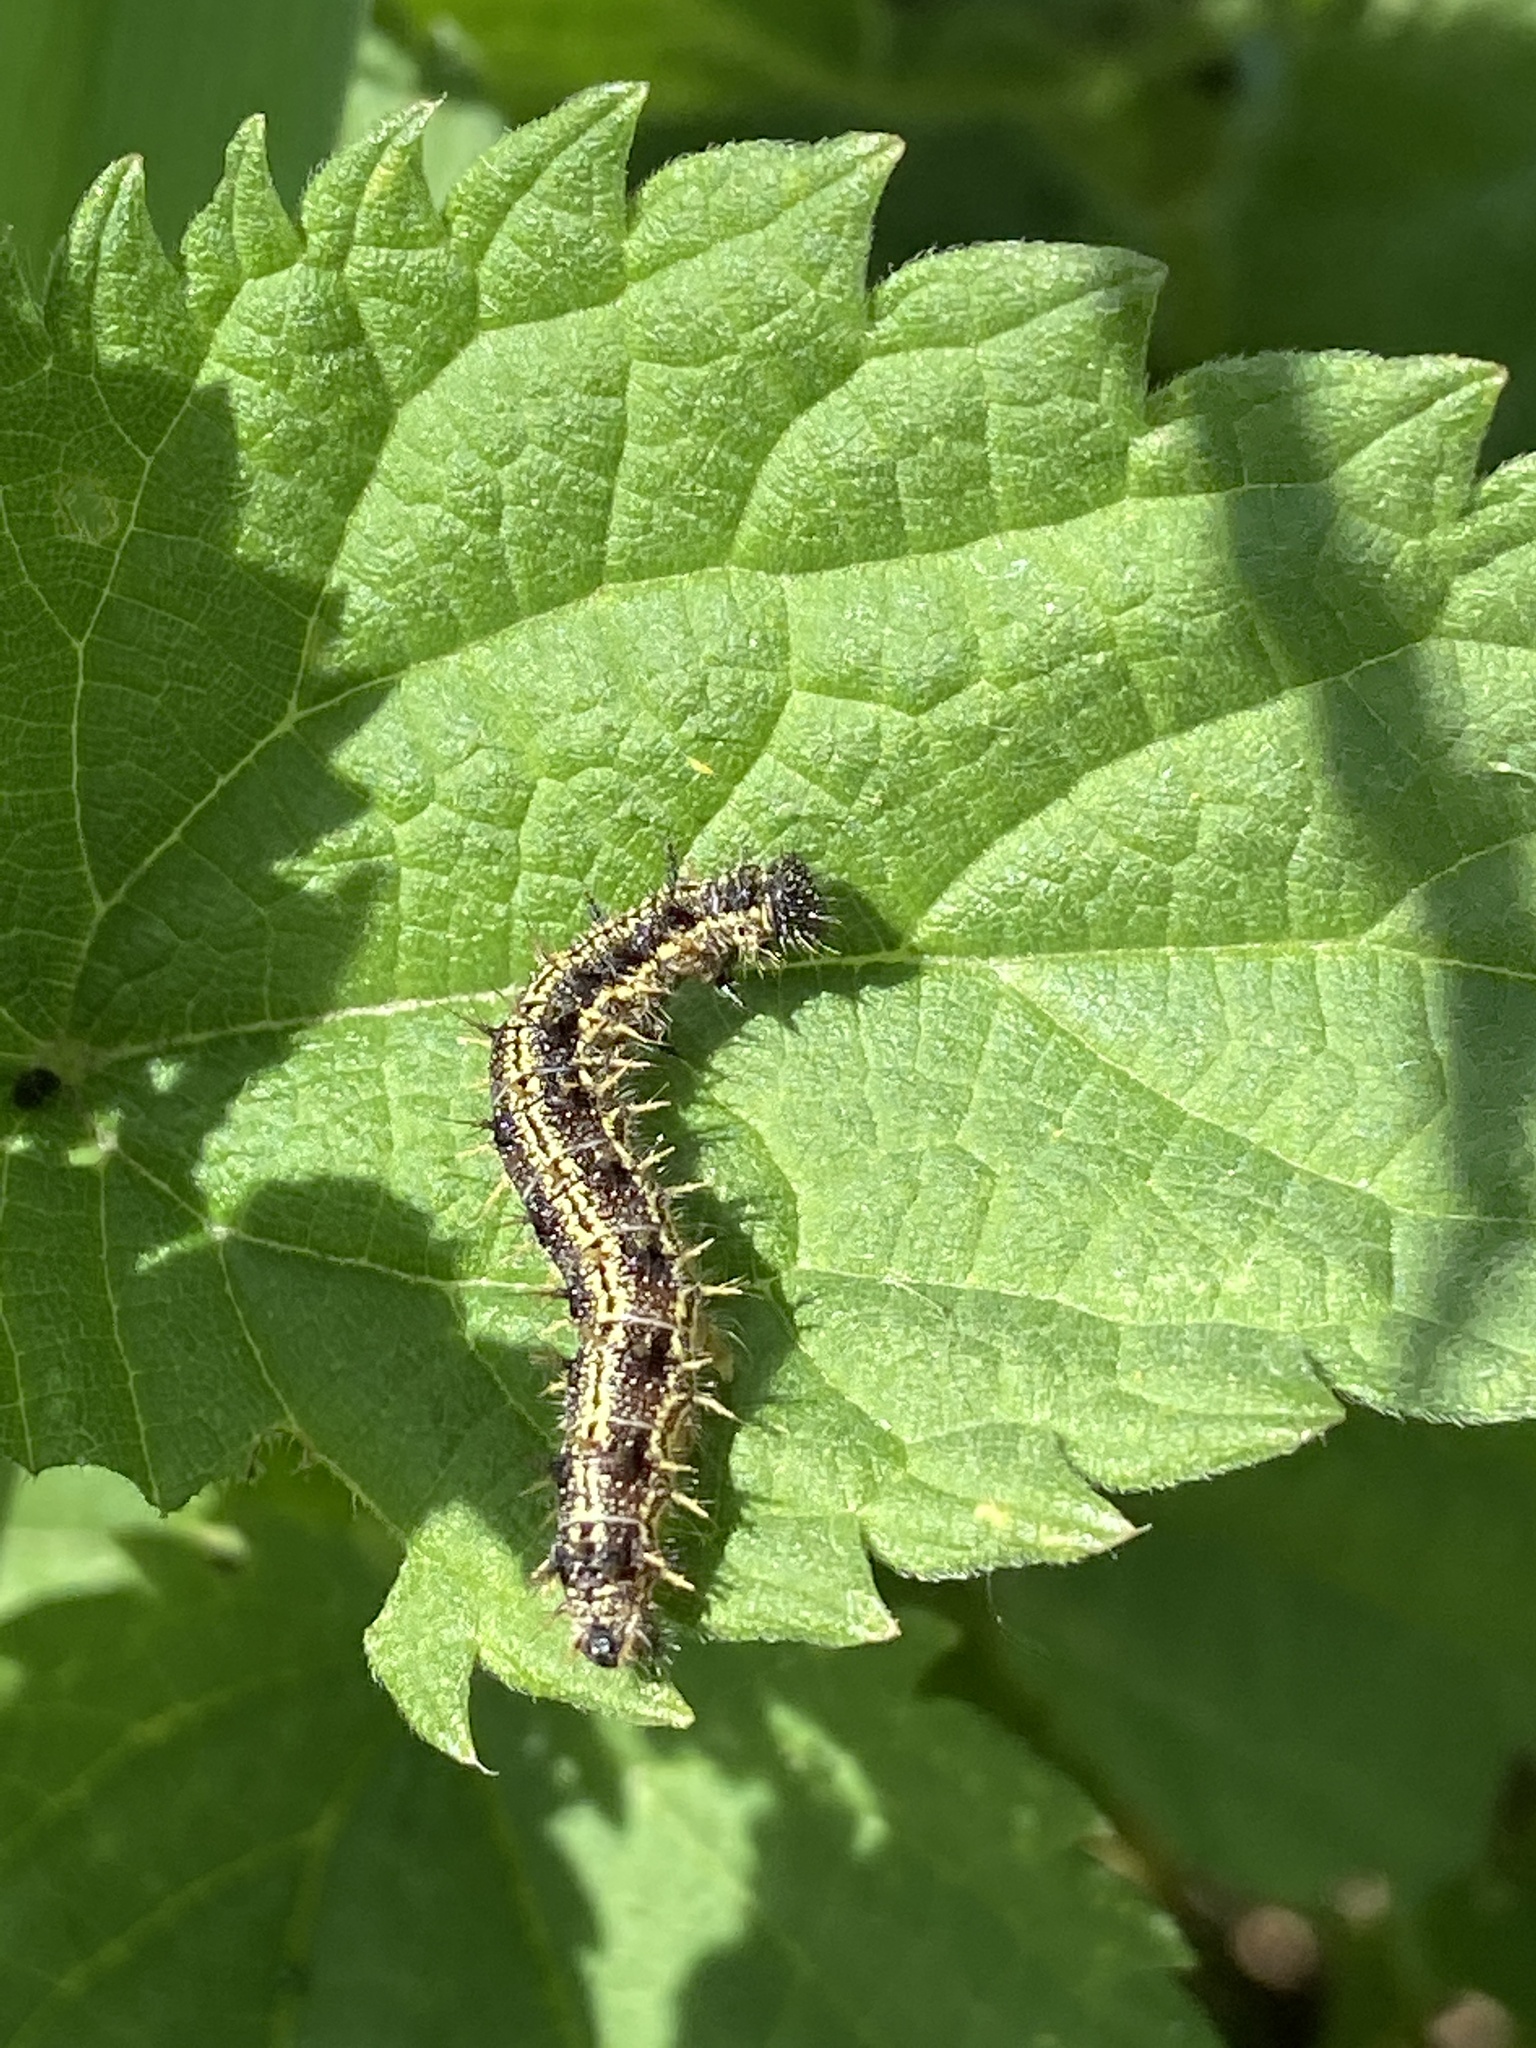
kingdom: Animalia
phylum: Arthropoda
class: Insecta
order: Lepidoptera
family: Nymphalidae
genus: Aglais
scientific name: Aglais urticae
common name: Small tortoiseshell
